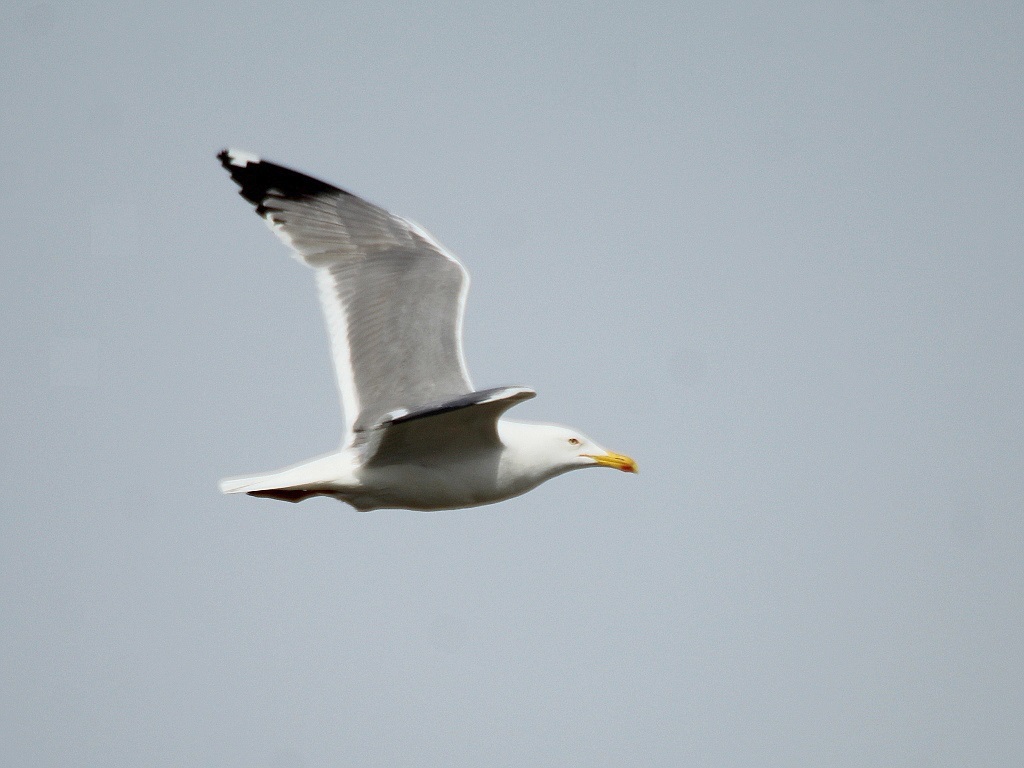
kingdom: Animalia
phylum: Chordata
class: Aves
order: Charadriiformes
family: Laridae
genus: Larus
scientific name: Larus fuscus
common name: Lesser black-backed gull
